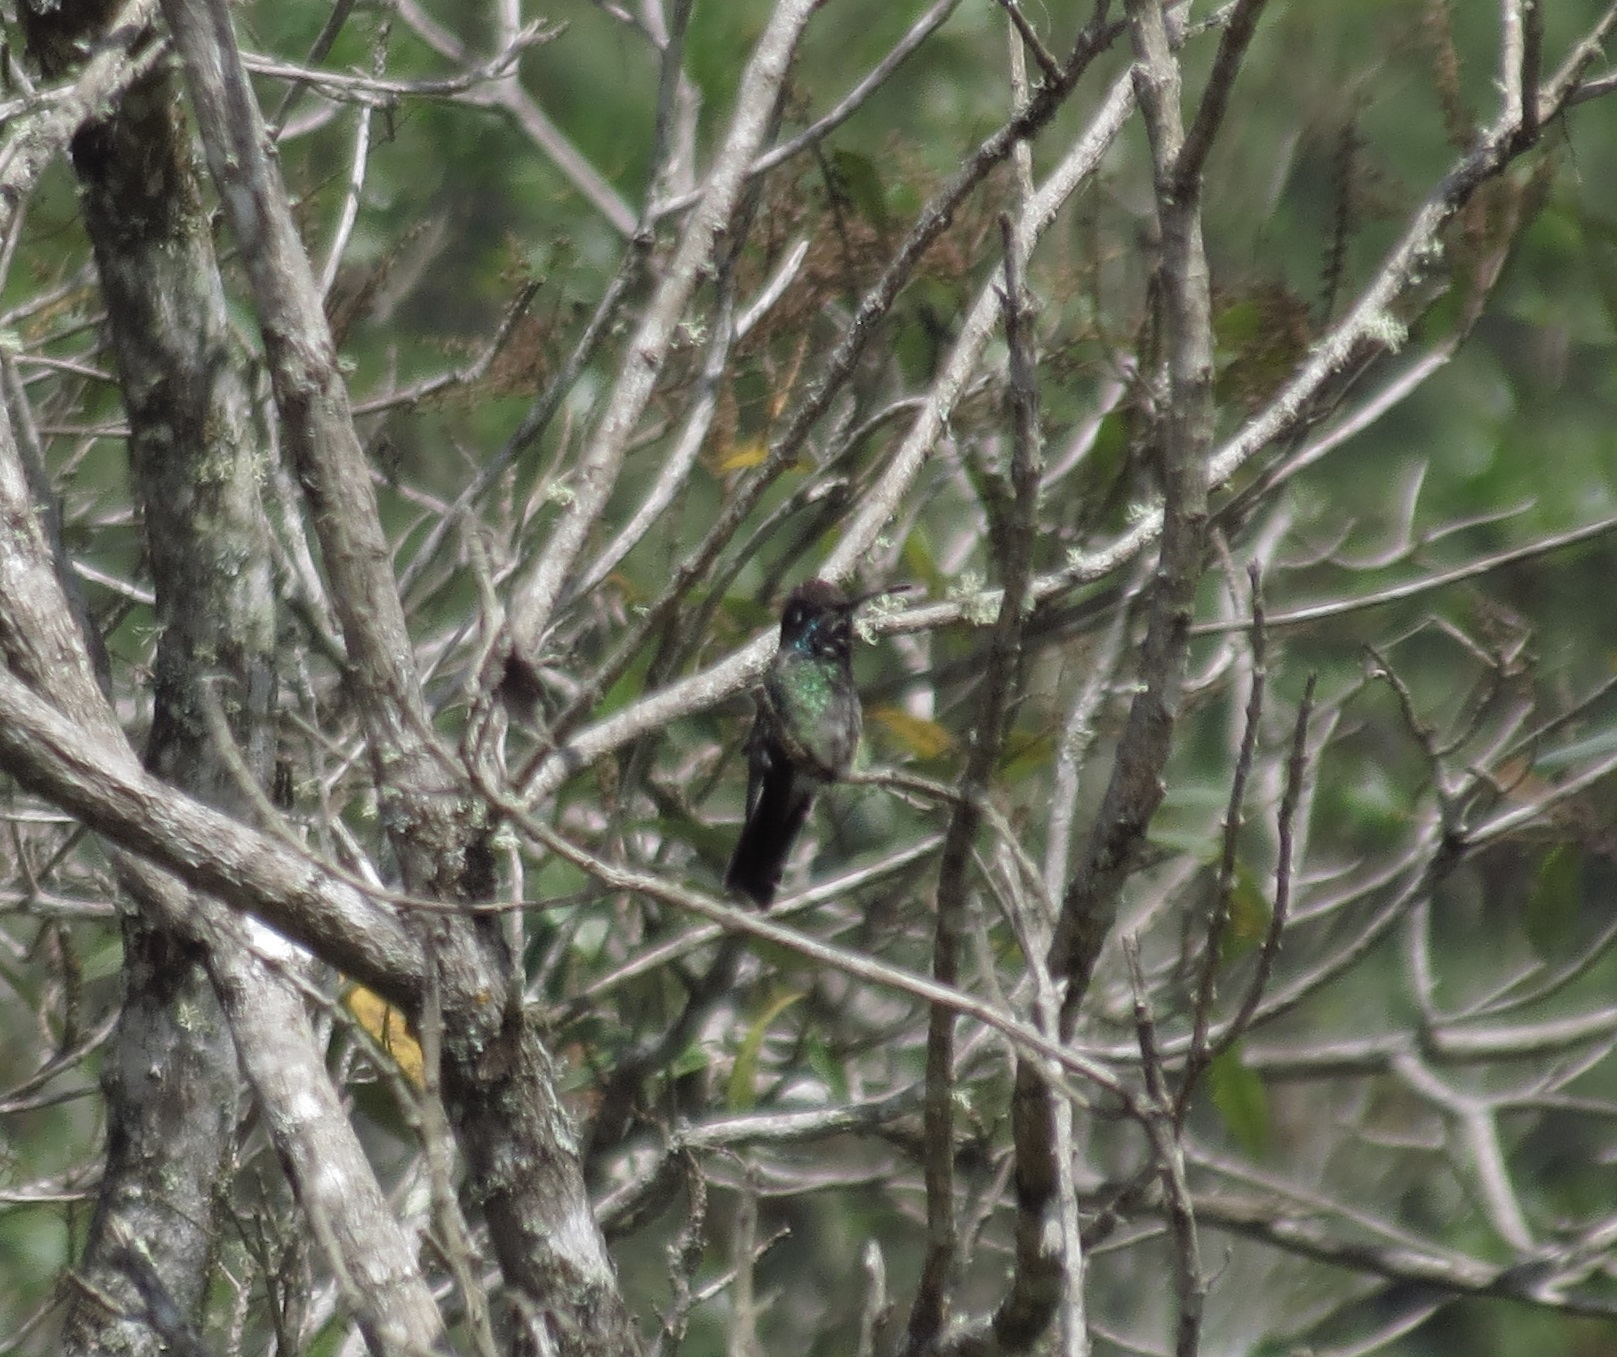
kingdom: Animalia
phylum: Chordata
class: Aves
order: Apodiformes
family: Trochilidae
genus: Eugenes
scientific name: Eugenes fulgens
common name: Magnificent hummingbird
